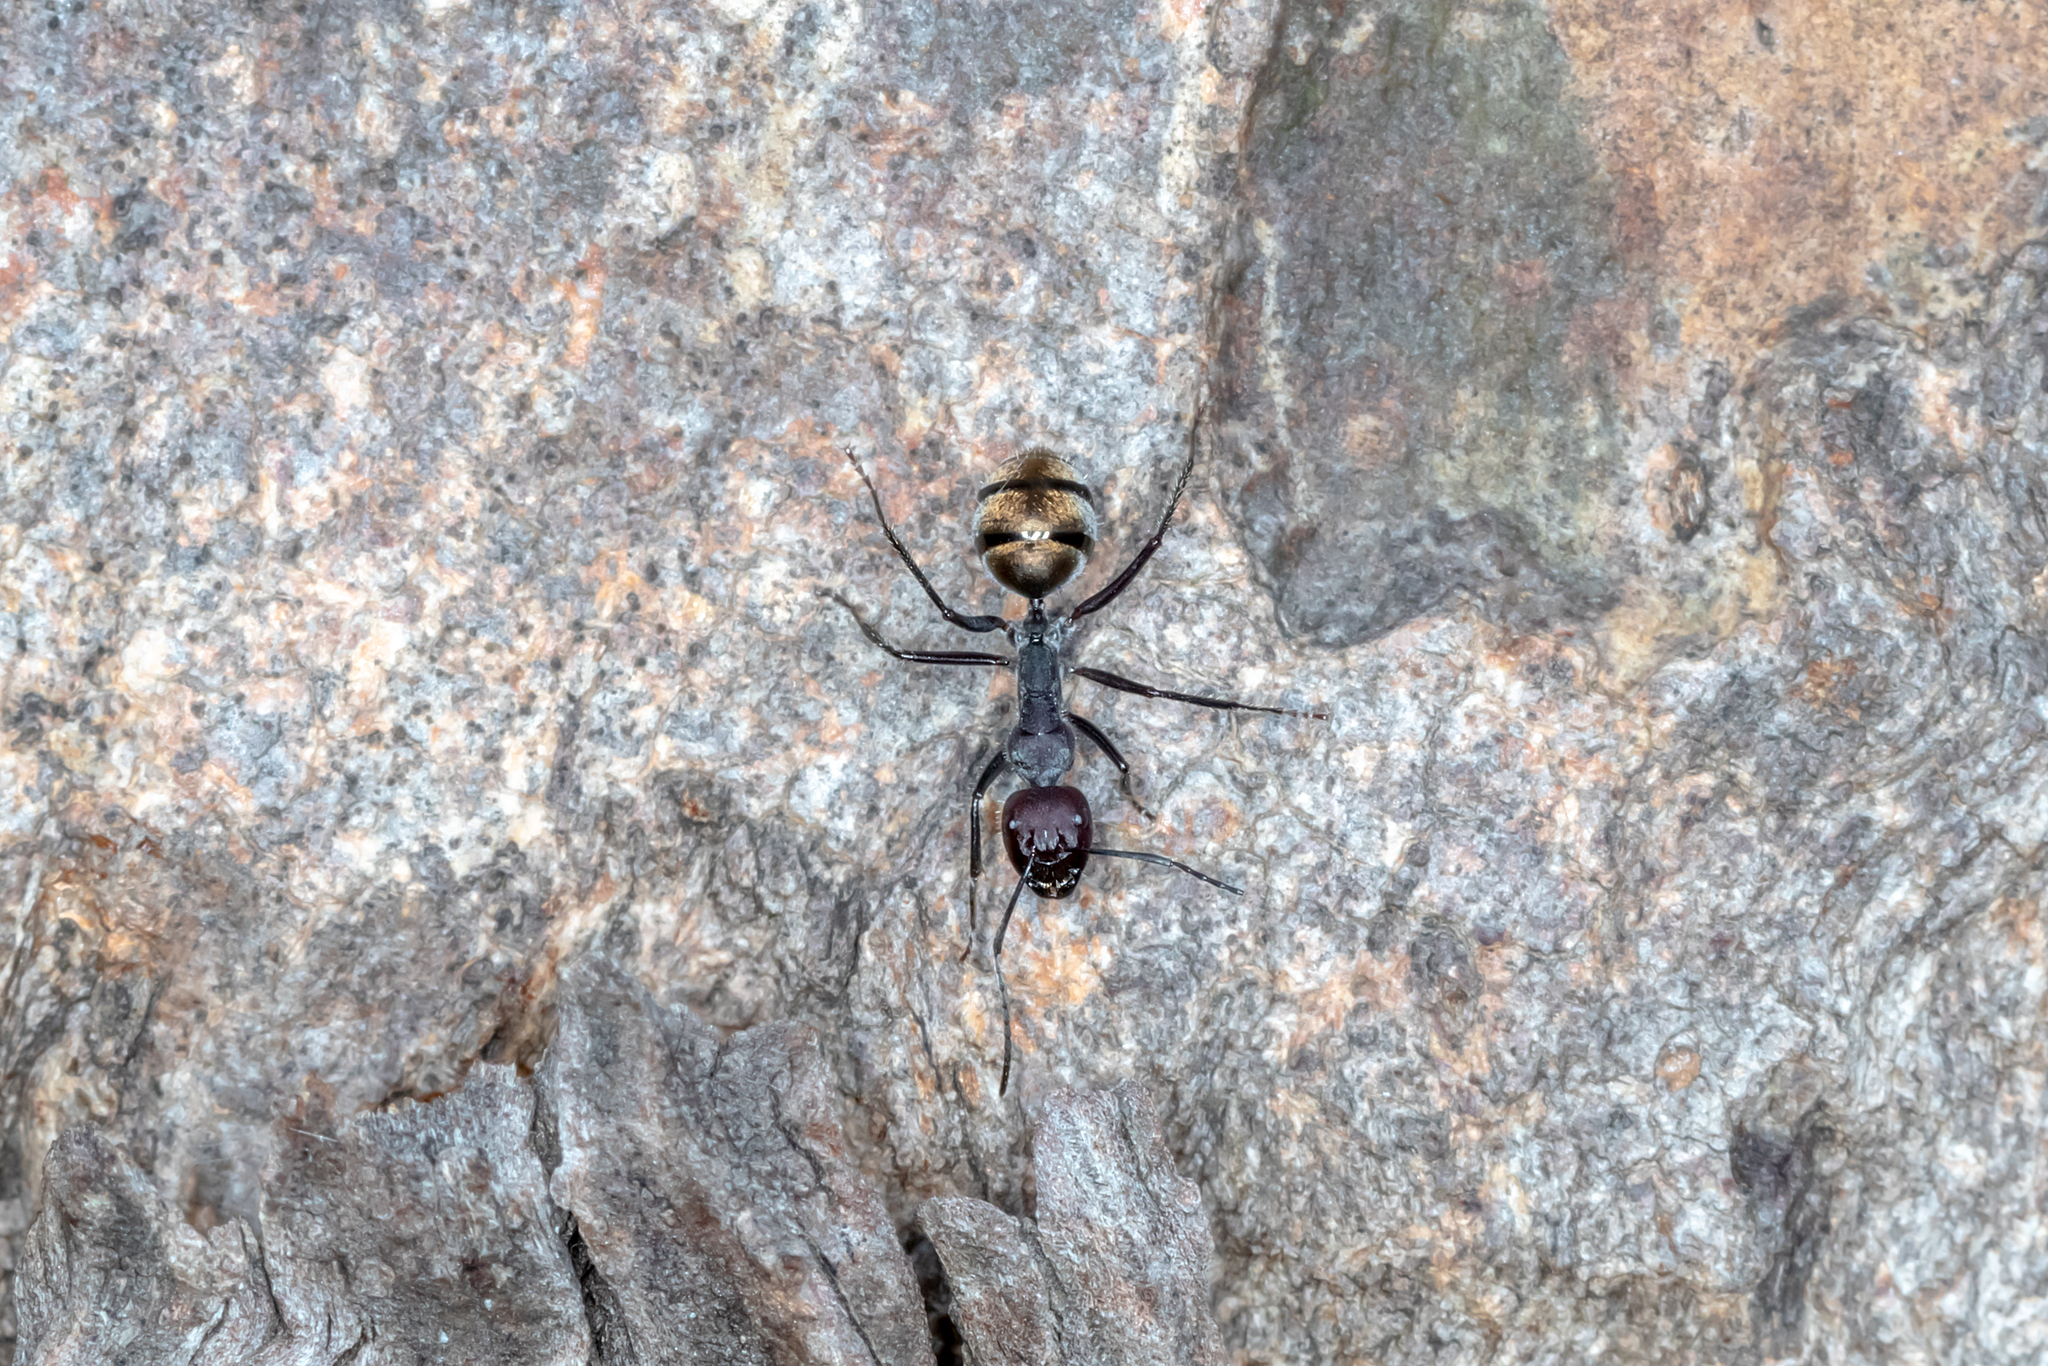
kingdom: Animalia
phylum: Arthropoda
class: Insecta
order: Hymenoptera
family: Formicidae
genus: Camponotus
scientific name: Camponotus suffusus
